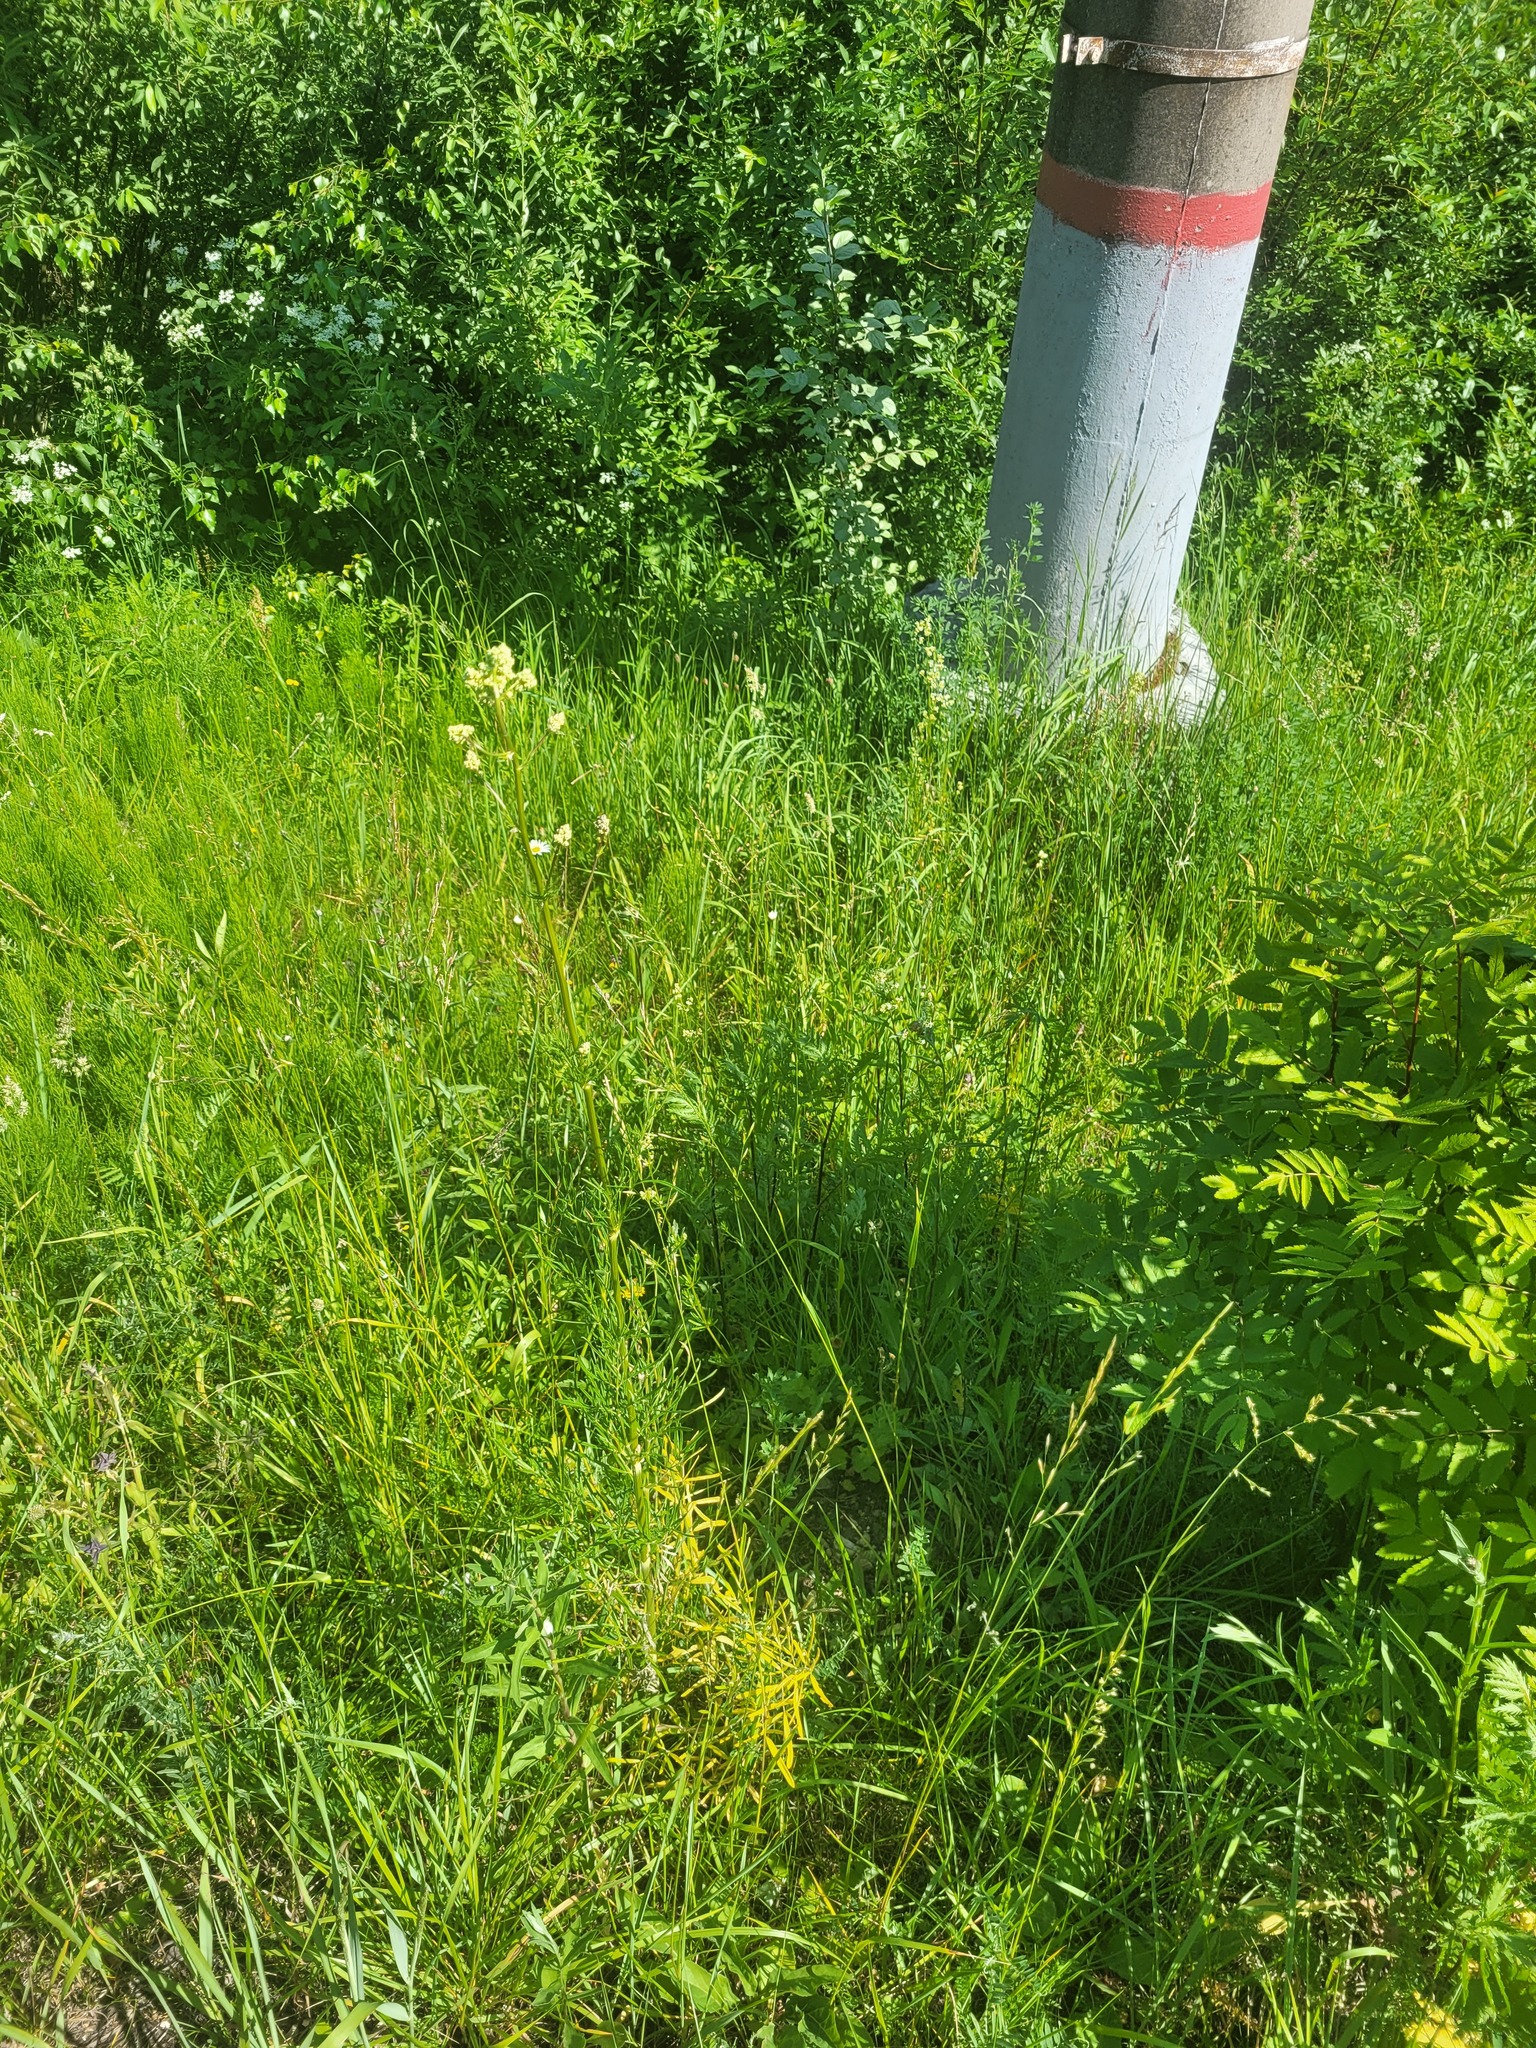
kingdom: Plantae
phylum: Tracheophyta
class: Magnoliopsida
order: Ranunculales
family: Ranunculaceae
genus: Thalictrum
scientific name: Thalictrum lucidum
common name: Shining meadow-rue
